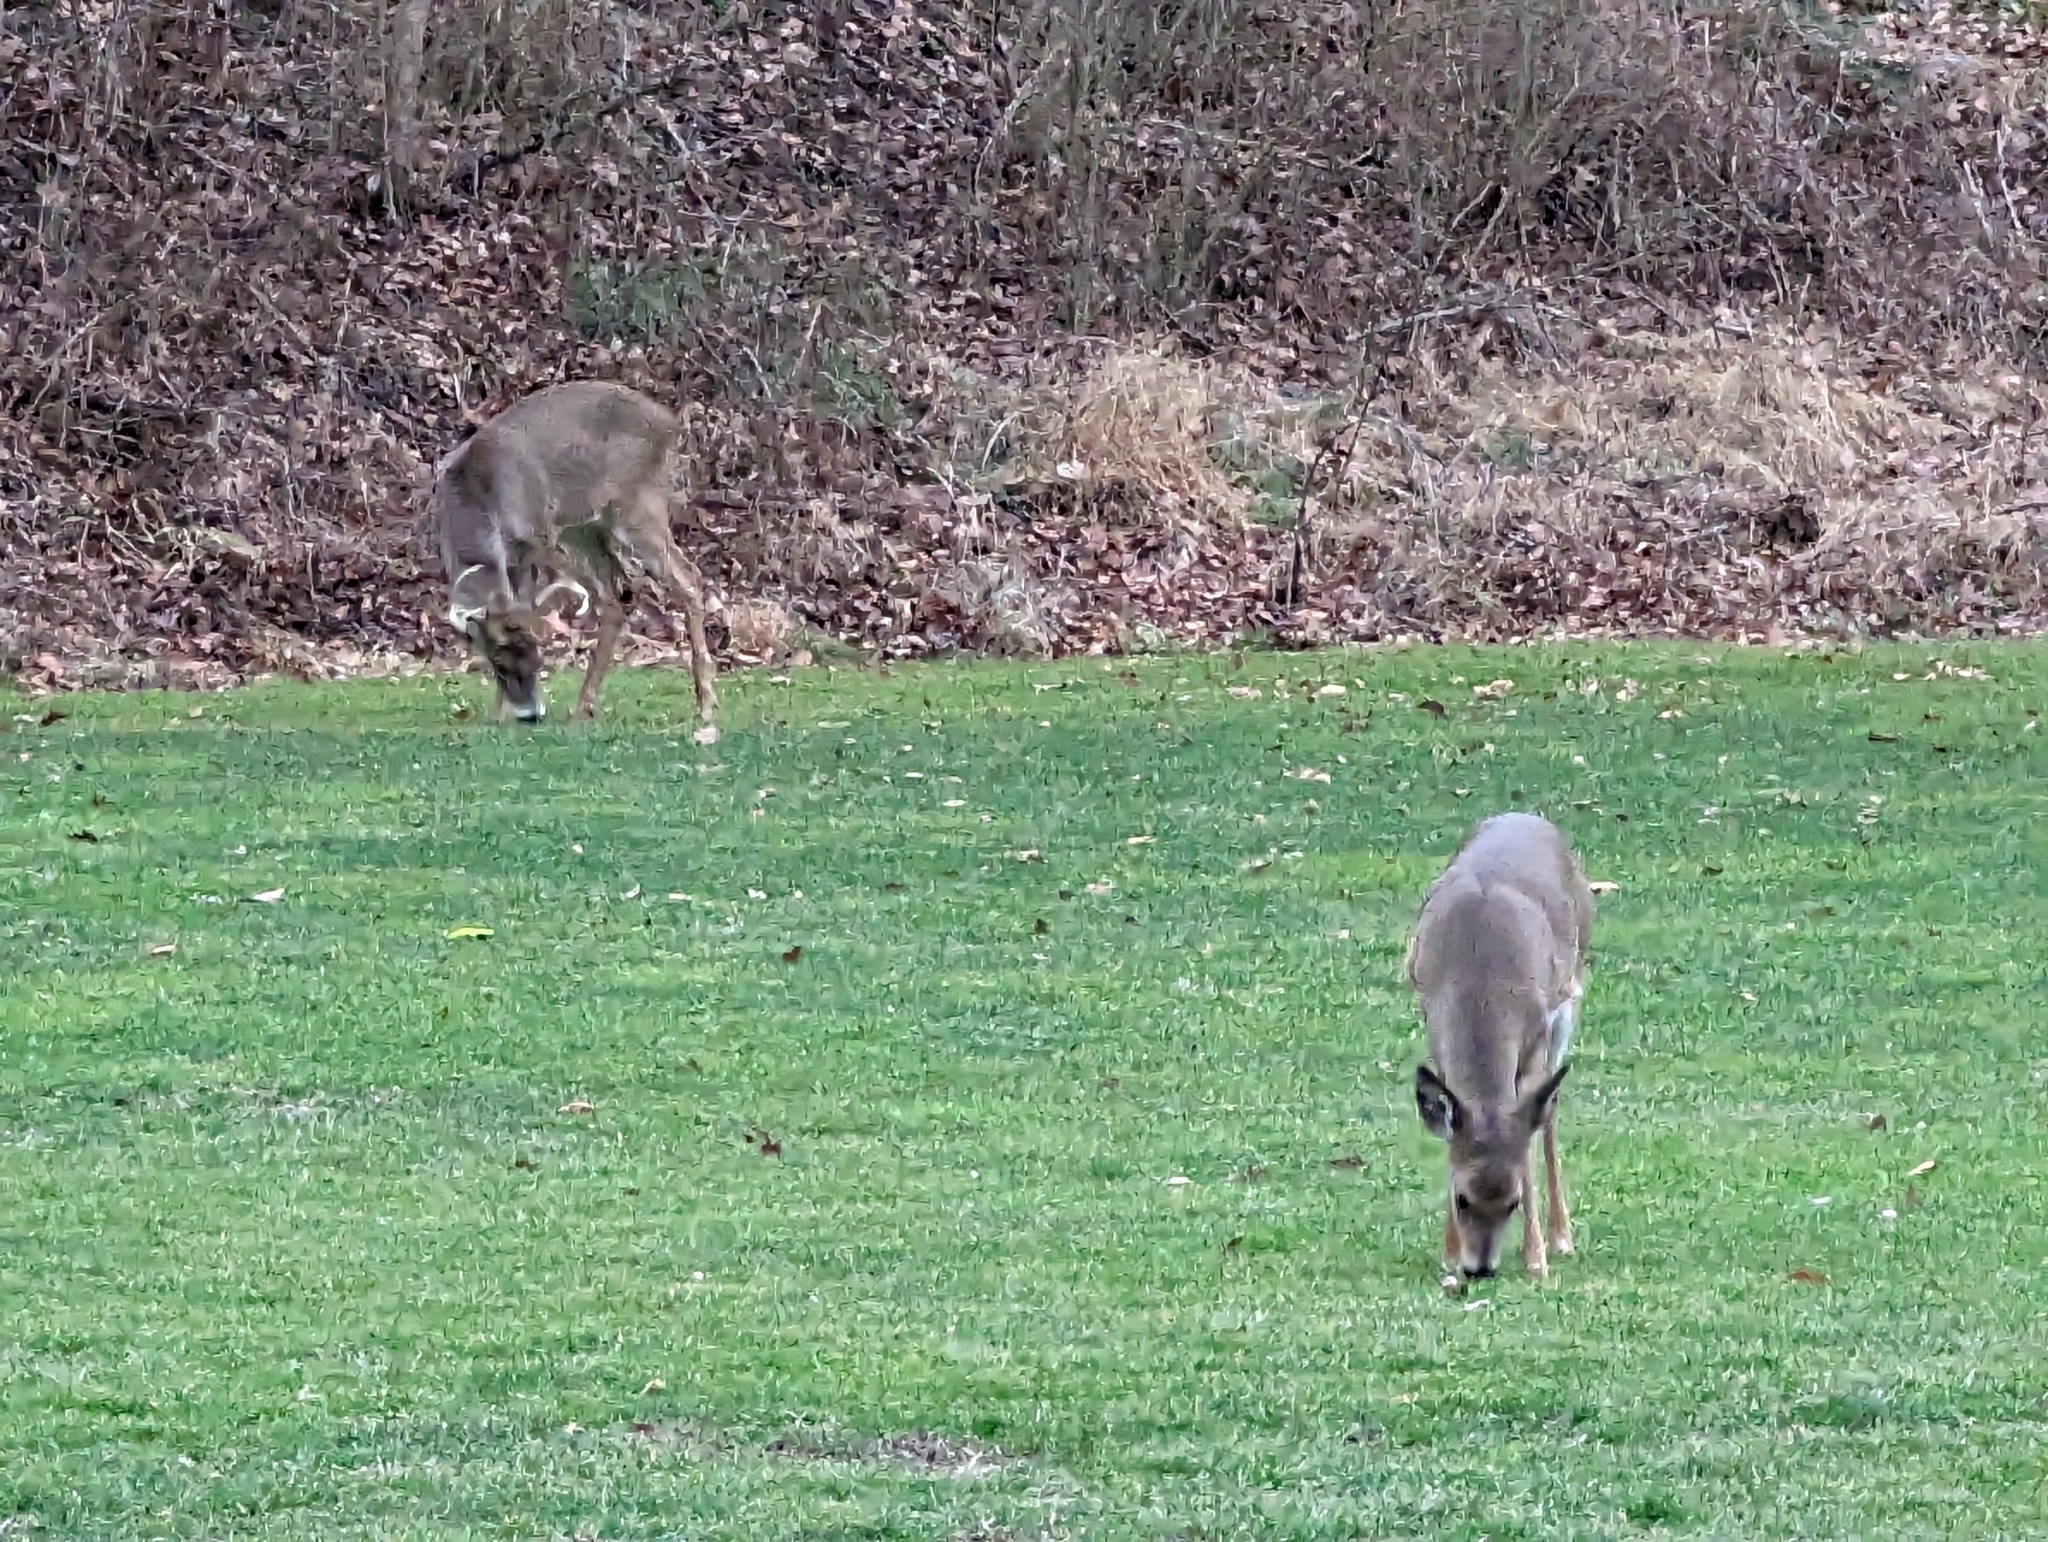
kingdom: Animalia
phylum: Chordata
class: Mammalia
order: Artiodactyla
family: Cervidae
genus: Odocoileus
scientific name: Odocoileus virginianus
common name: White-tailed deer
